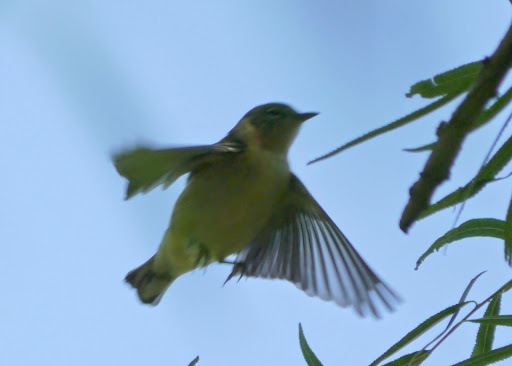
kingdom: Animalia
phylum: Chordata
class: Aves
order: Passeriformes
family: Parulidae
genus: Setophaga
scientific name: Setophaga castanea
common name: Bay-breasted warbler
